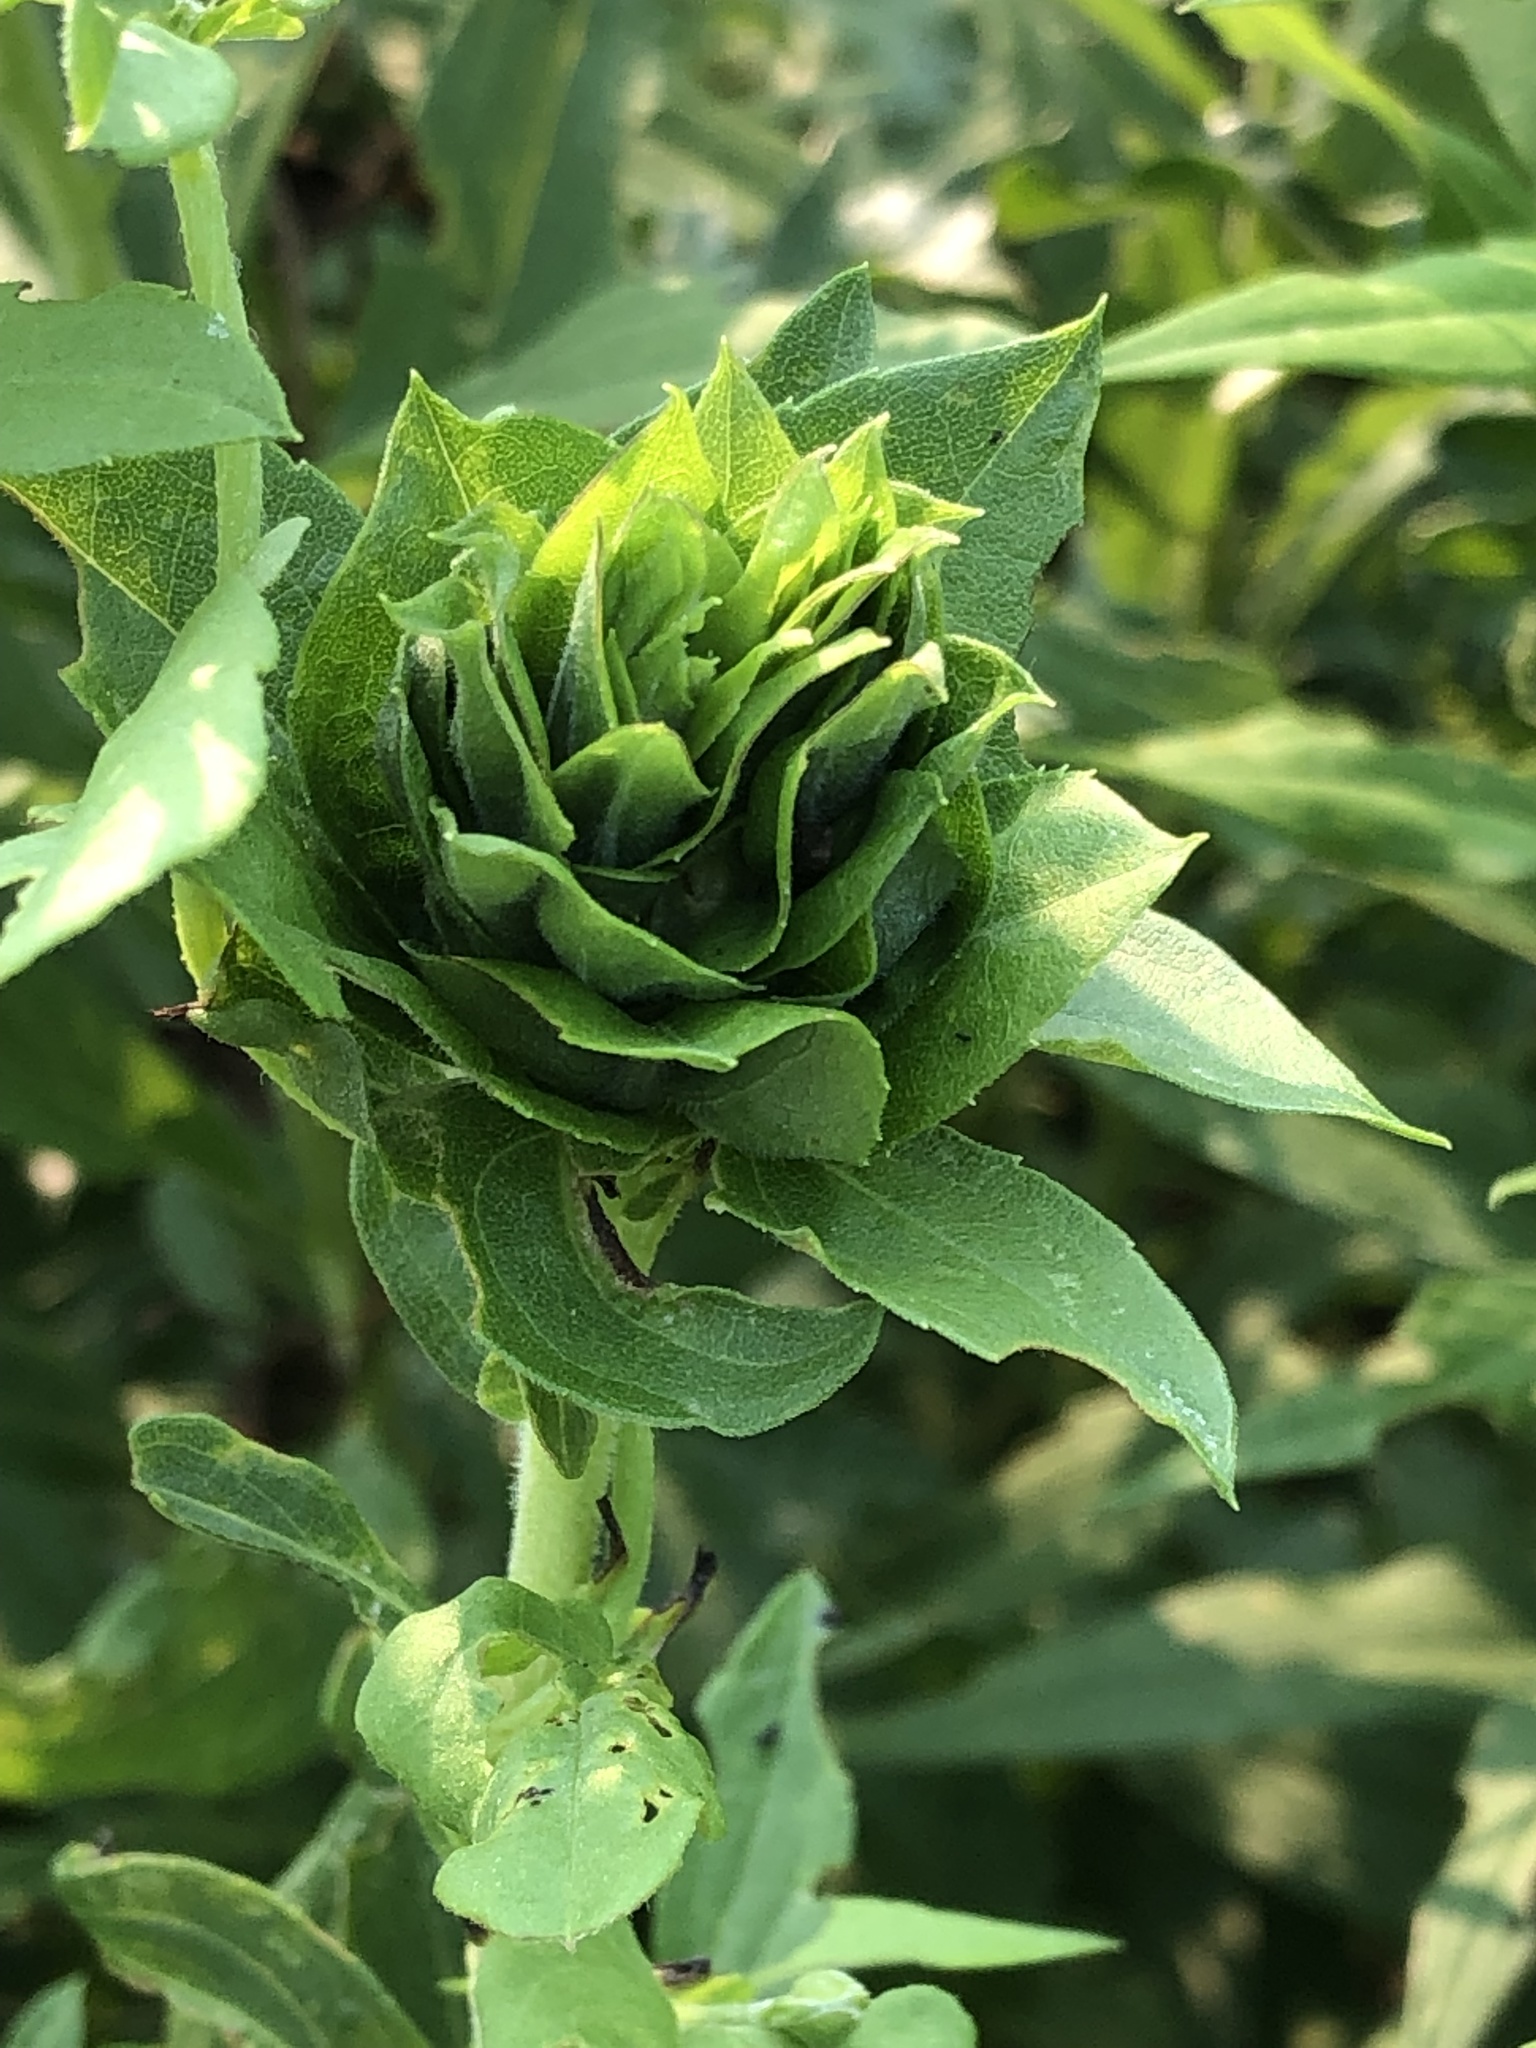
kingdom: Animalia
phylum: Arthropoda
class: Insecta
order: Diptera
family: Cecidomyiidae
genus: Rhopalomyia
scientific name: Rhopalomyia solidaginis
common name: Goldenrod bunch gall midge
